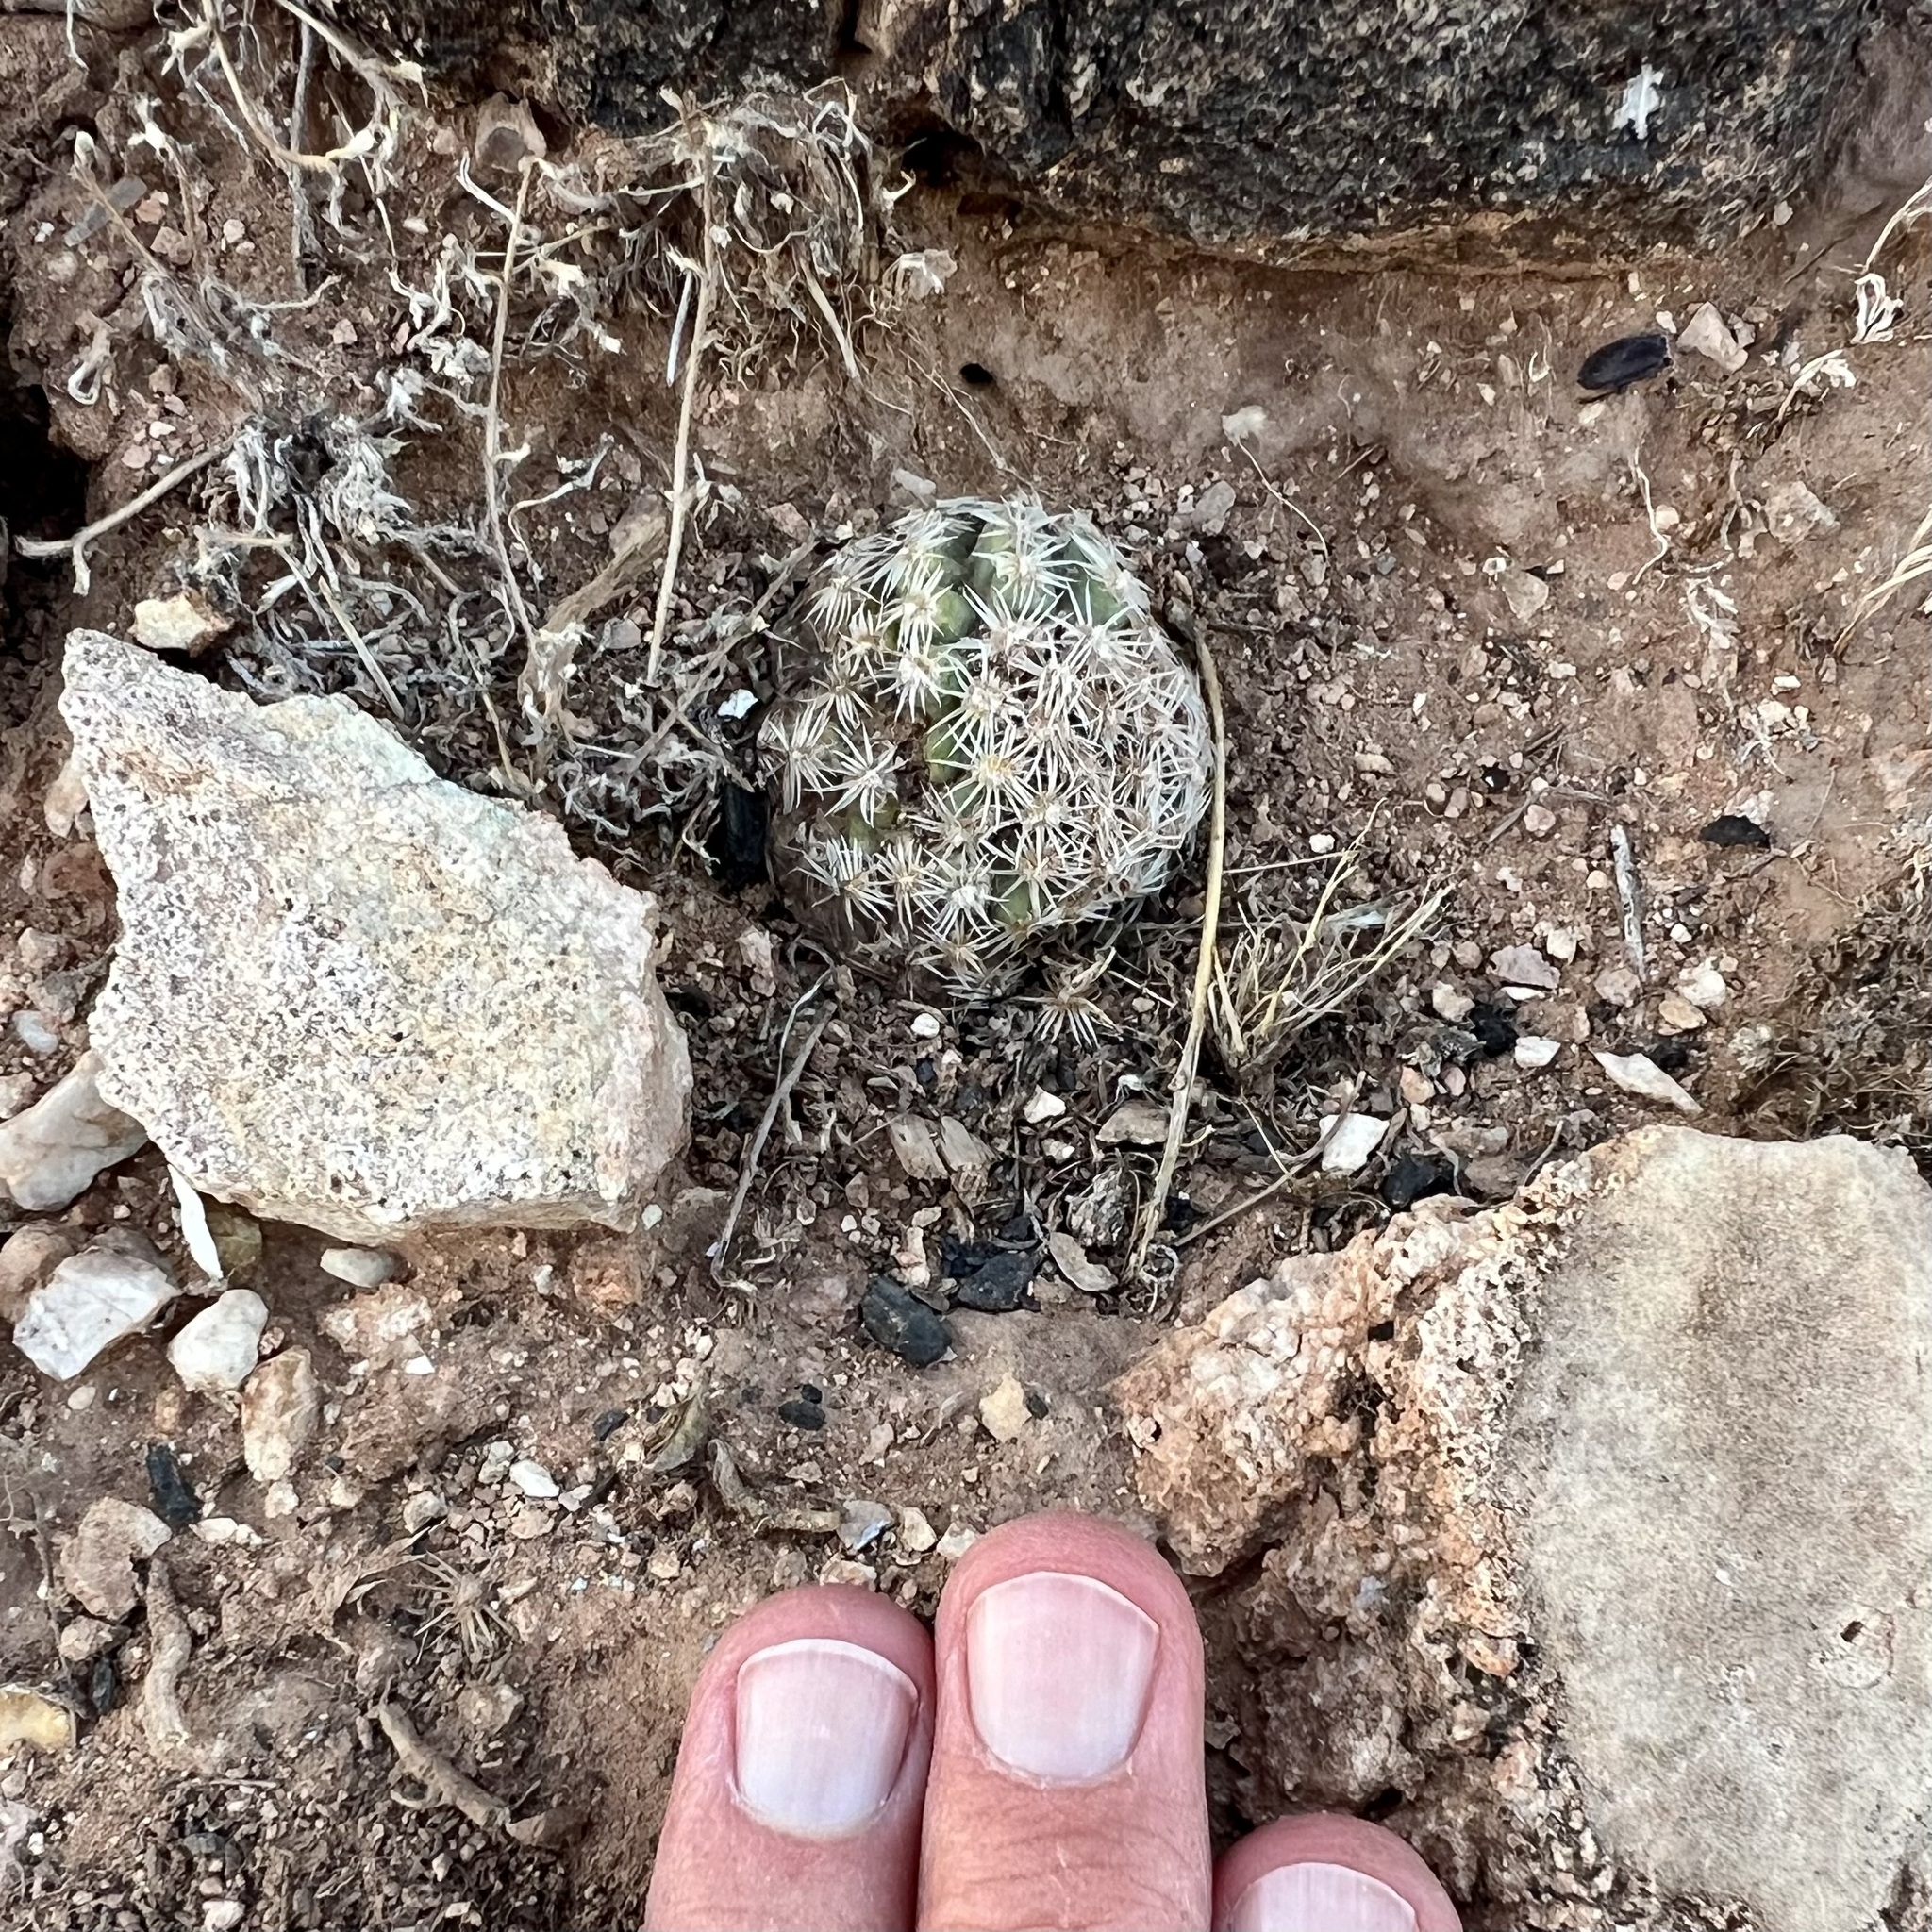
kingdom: Plantae
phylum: Tracheophyta
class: Magnoliopsida
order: Caryophyllales
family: Cactaceae
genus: Pediocactus
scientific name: Pediocactus bradyi
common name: Brady's hedgehog cactus
